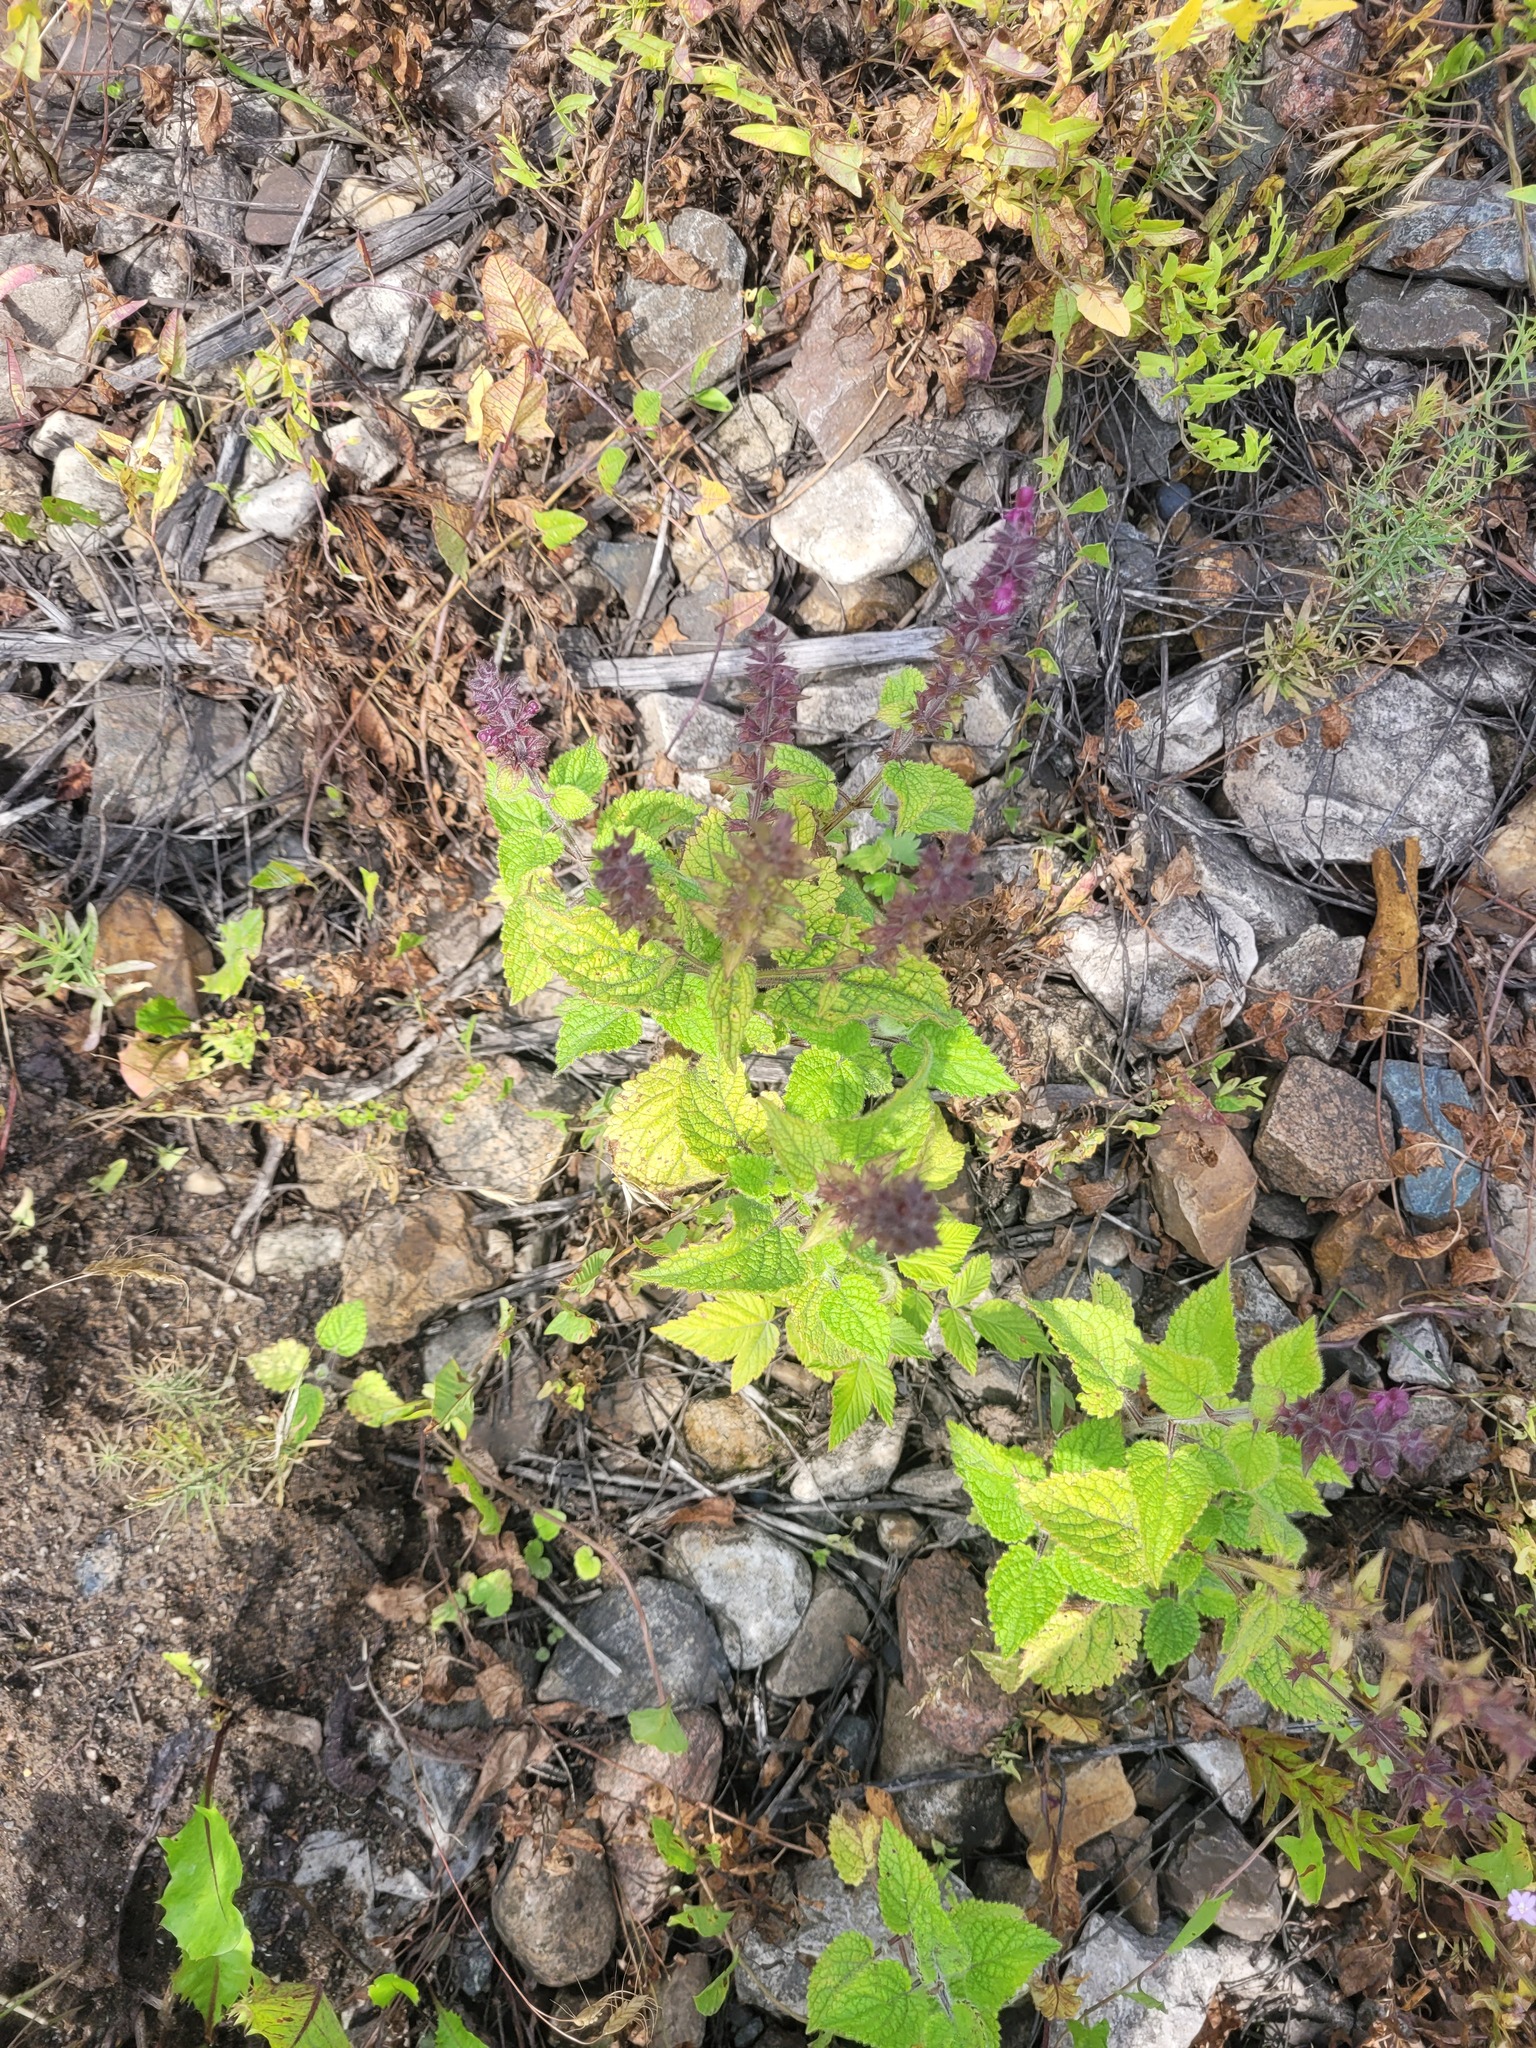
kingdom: Plantae
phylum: Tracheophyta
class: Magnoliopsida
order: Lamiales
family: Lamiaceae
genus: Stachys
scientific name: Stachys sylvatica
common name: Hedge woundwort
